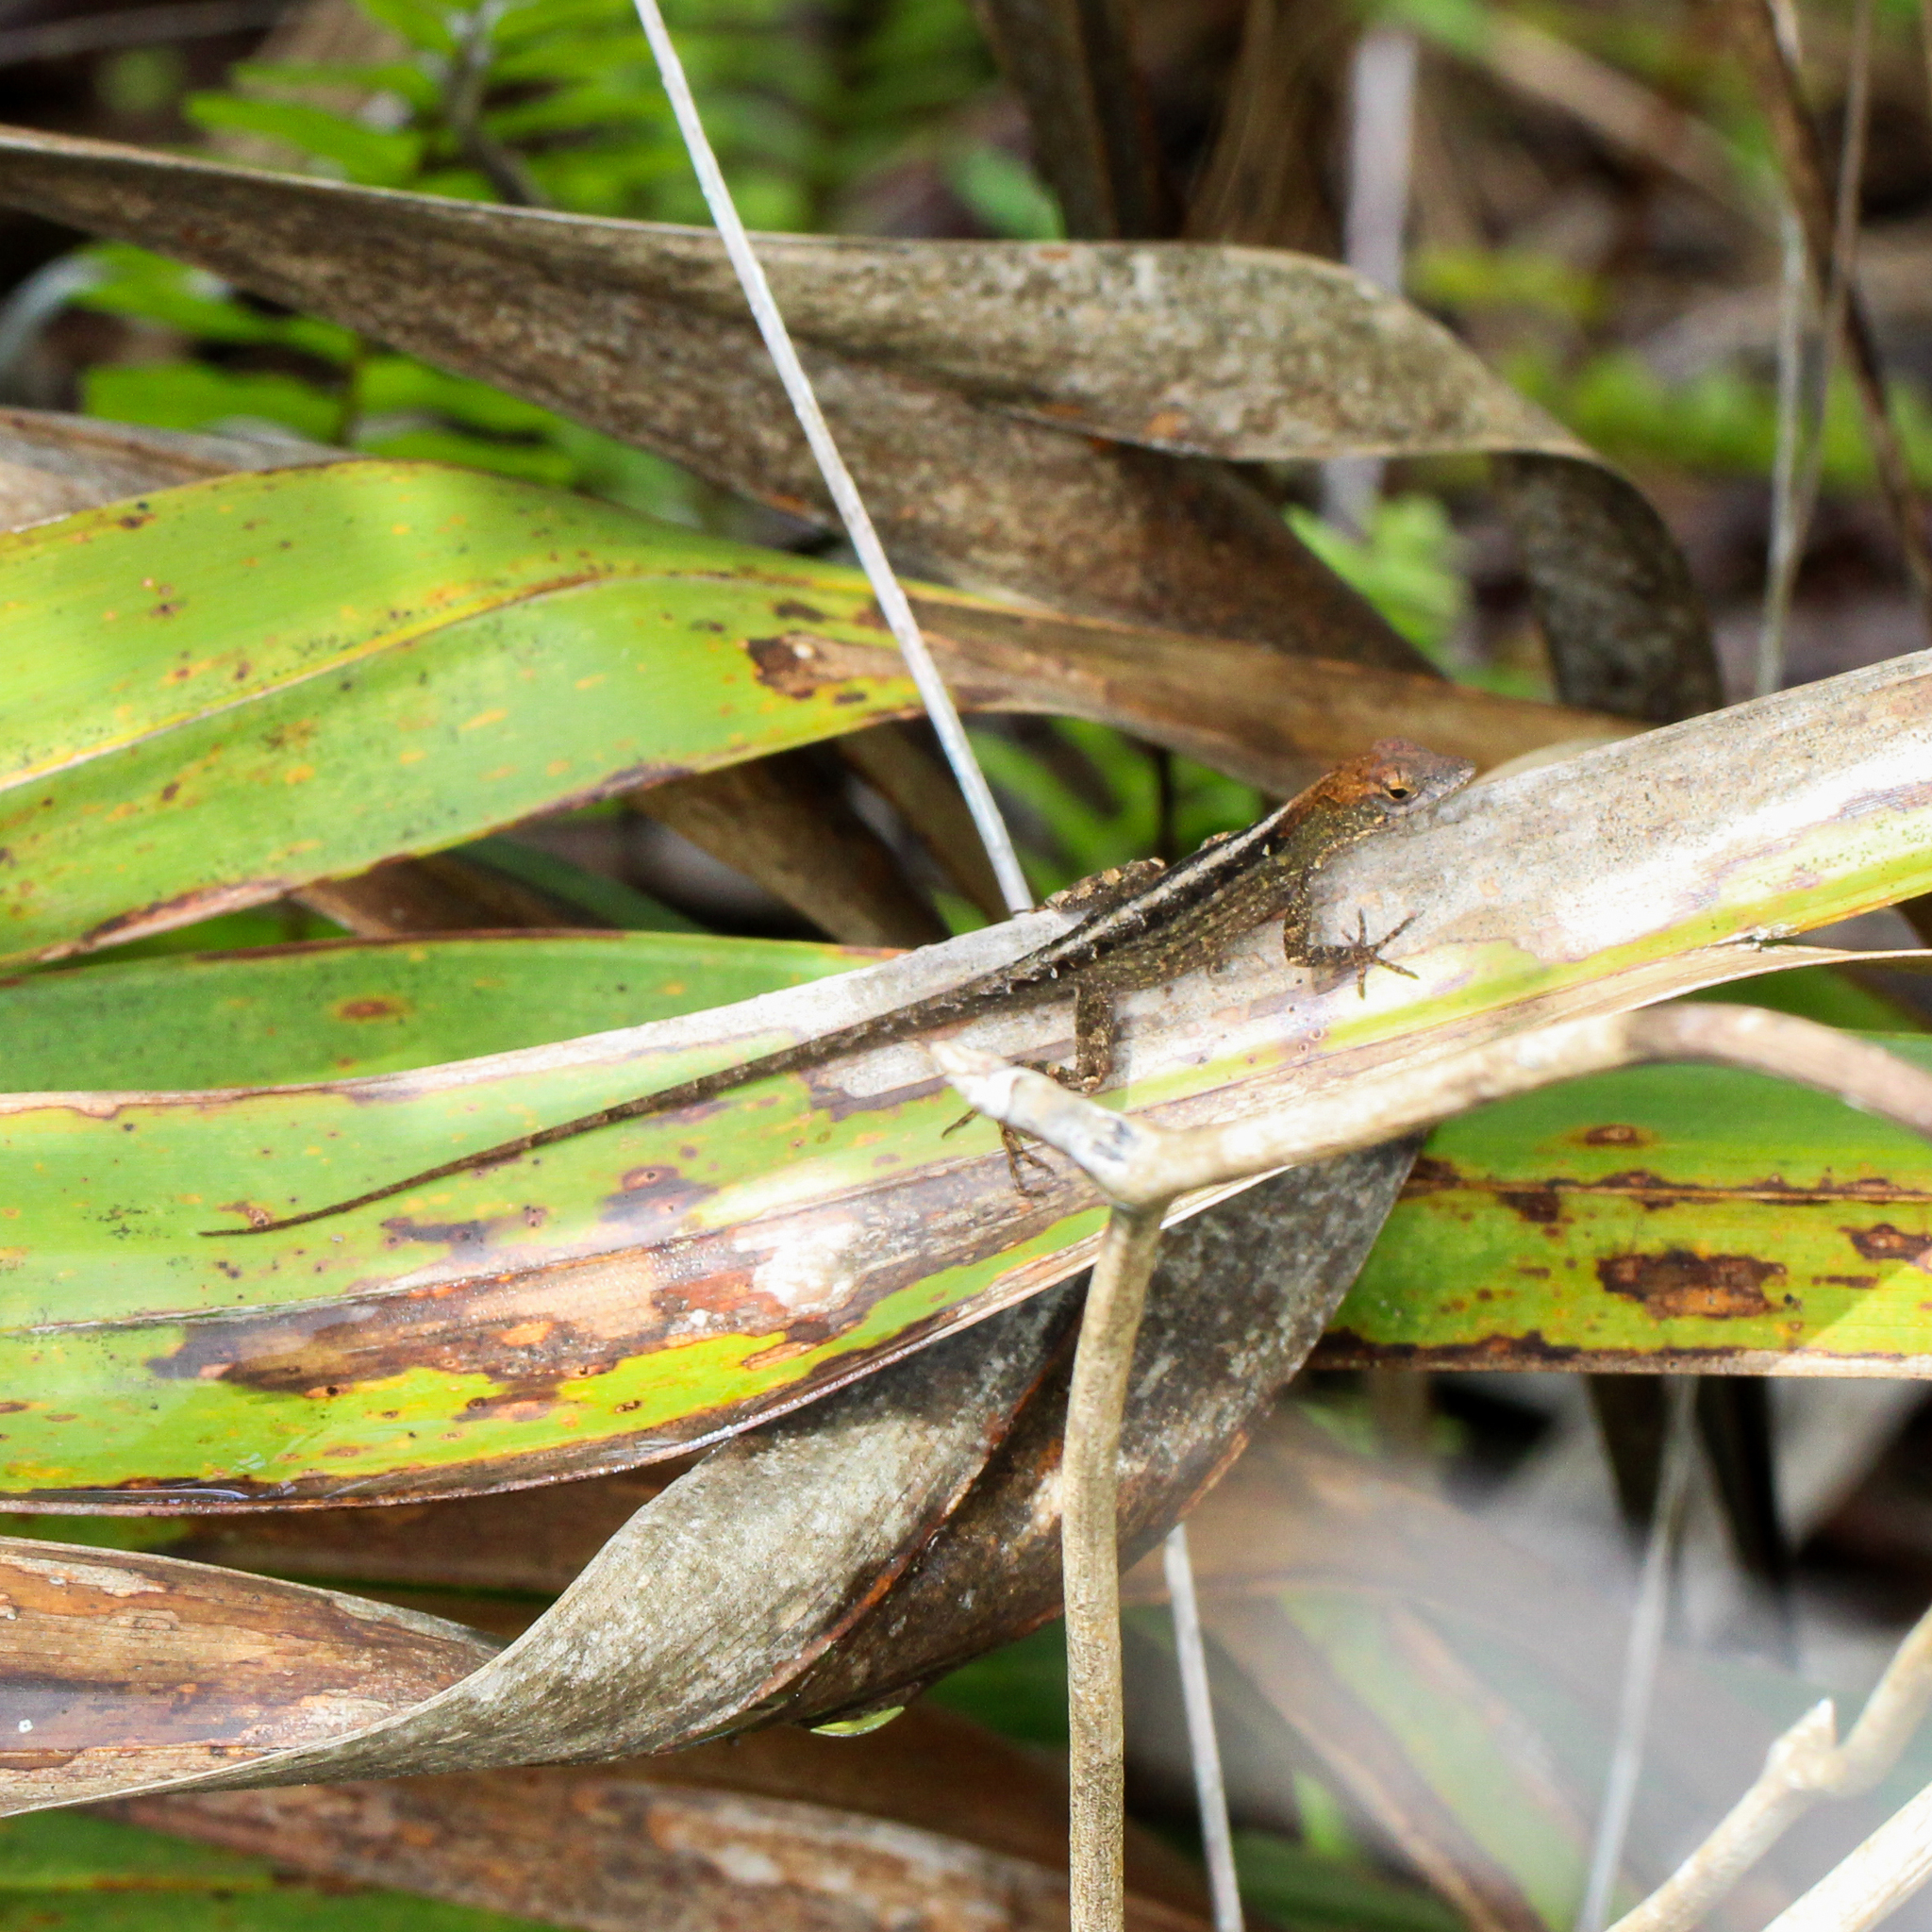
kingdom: Animalia
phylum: Chordata
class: Squamata
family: Dactyloidae
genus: Anolis
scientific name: Anolis sagrei
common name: Brown anole
